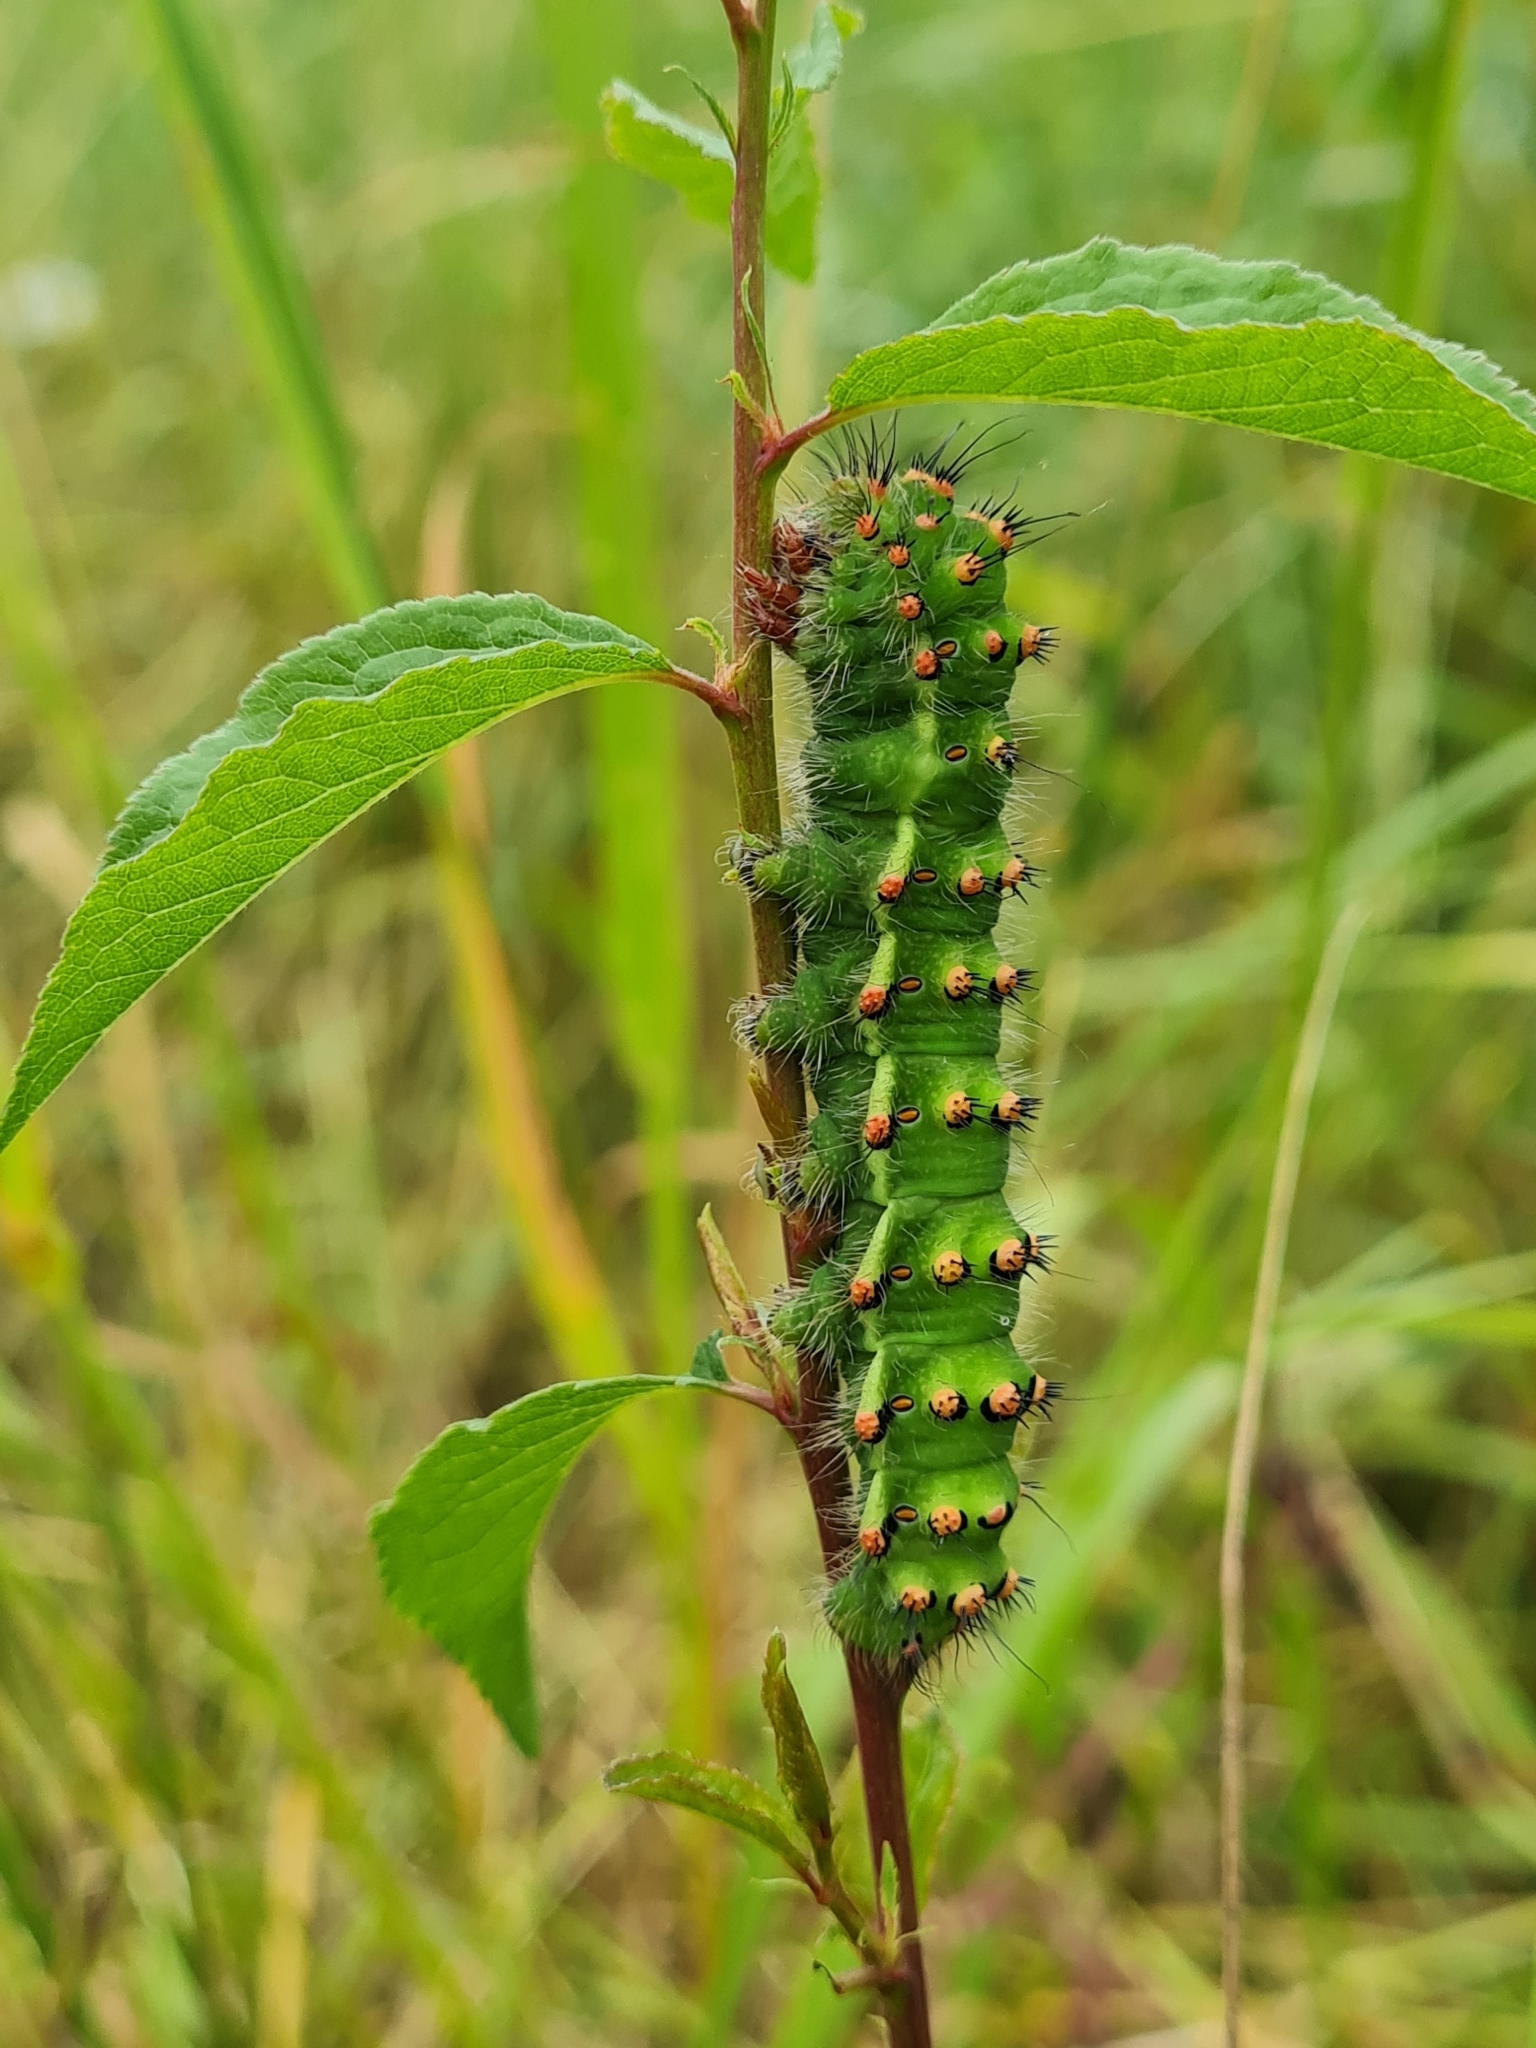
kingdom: Animalia
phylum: Arthropoda
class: Insecta
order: Lepidoptera
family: Saturniidae
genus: Saturnia
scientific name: Saturnia pavonia
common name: Emperor moth
